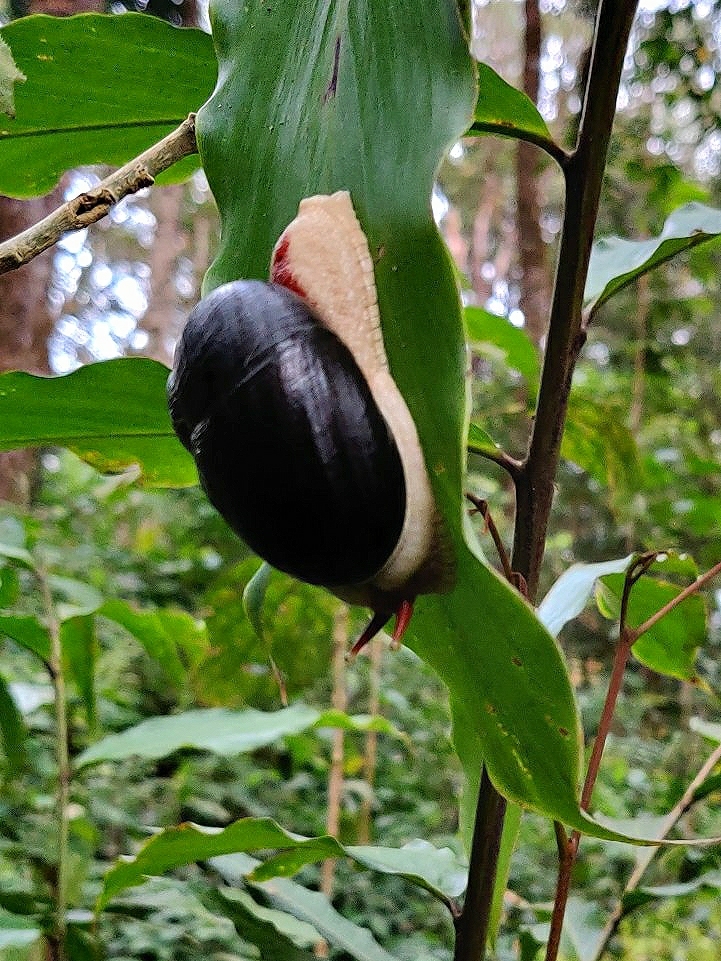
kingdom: Animalia
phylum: Mollusca
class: Gastropoda
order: Stylommatophora
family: Ariophantidae
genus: Indrella
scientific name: Indrella ampulla
